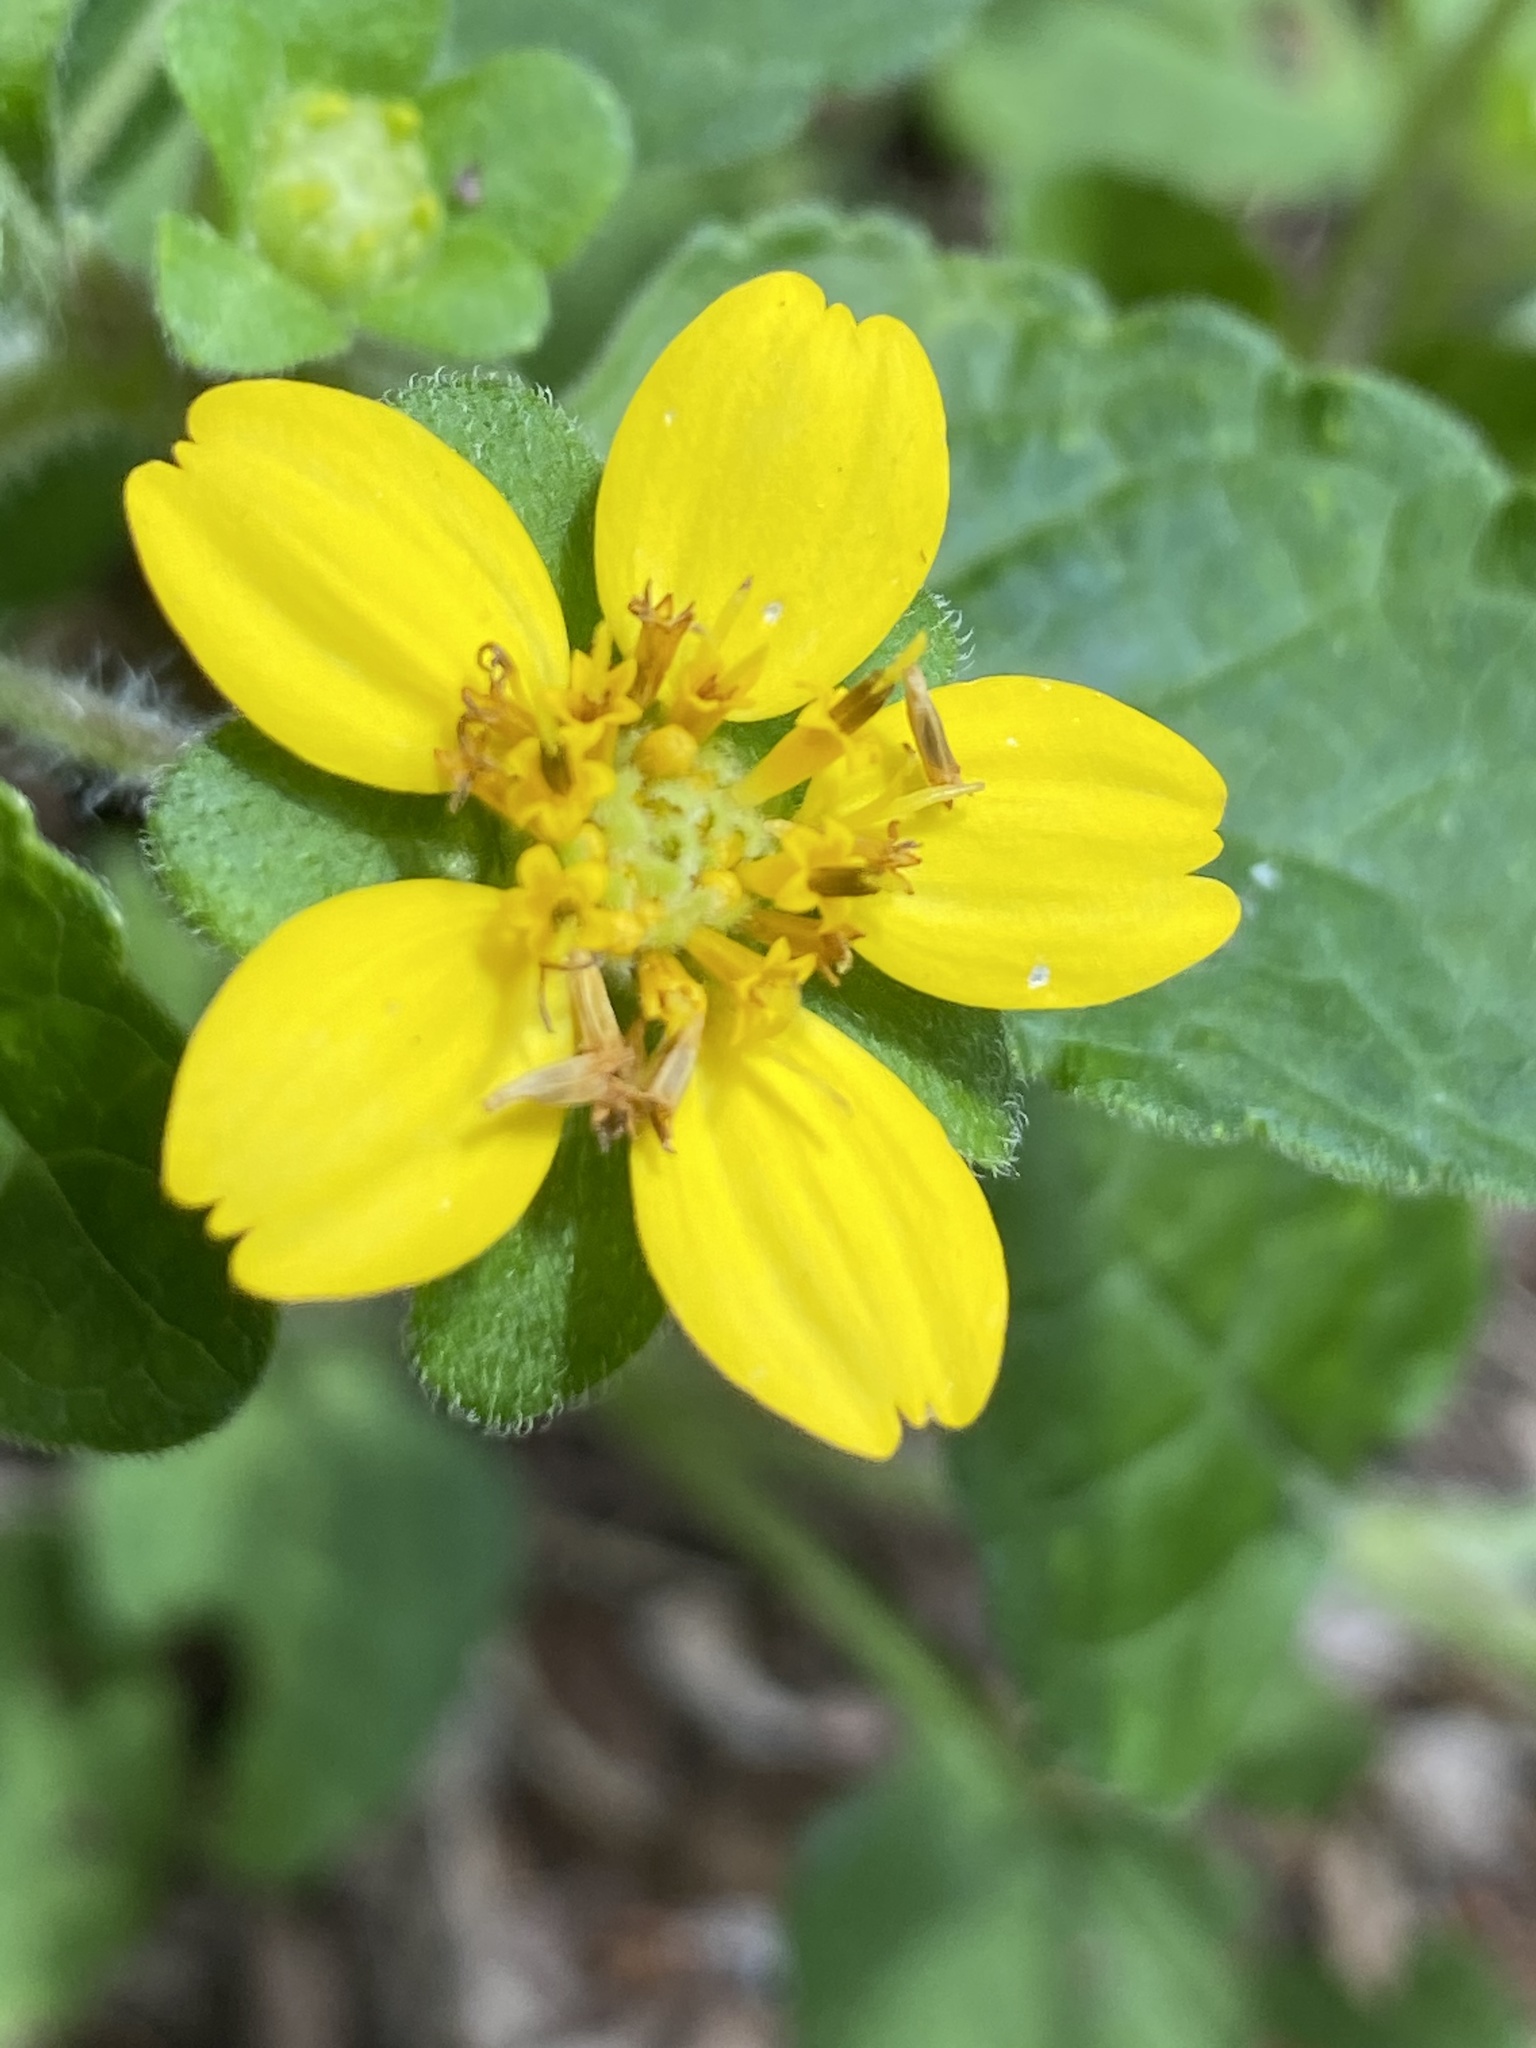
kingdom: Plantae
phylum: Tracheophyta
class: Magnoliopsida
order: Asterales
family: Asteraceae
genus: Chrysogonum
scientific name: Chrysogonum virginianum
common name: Golden-knee
